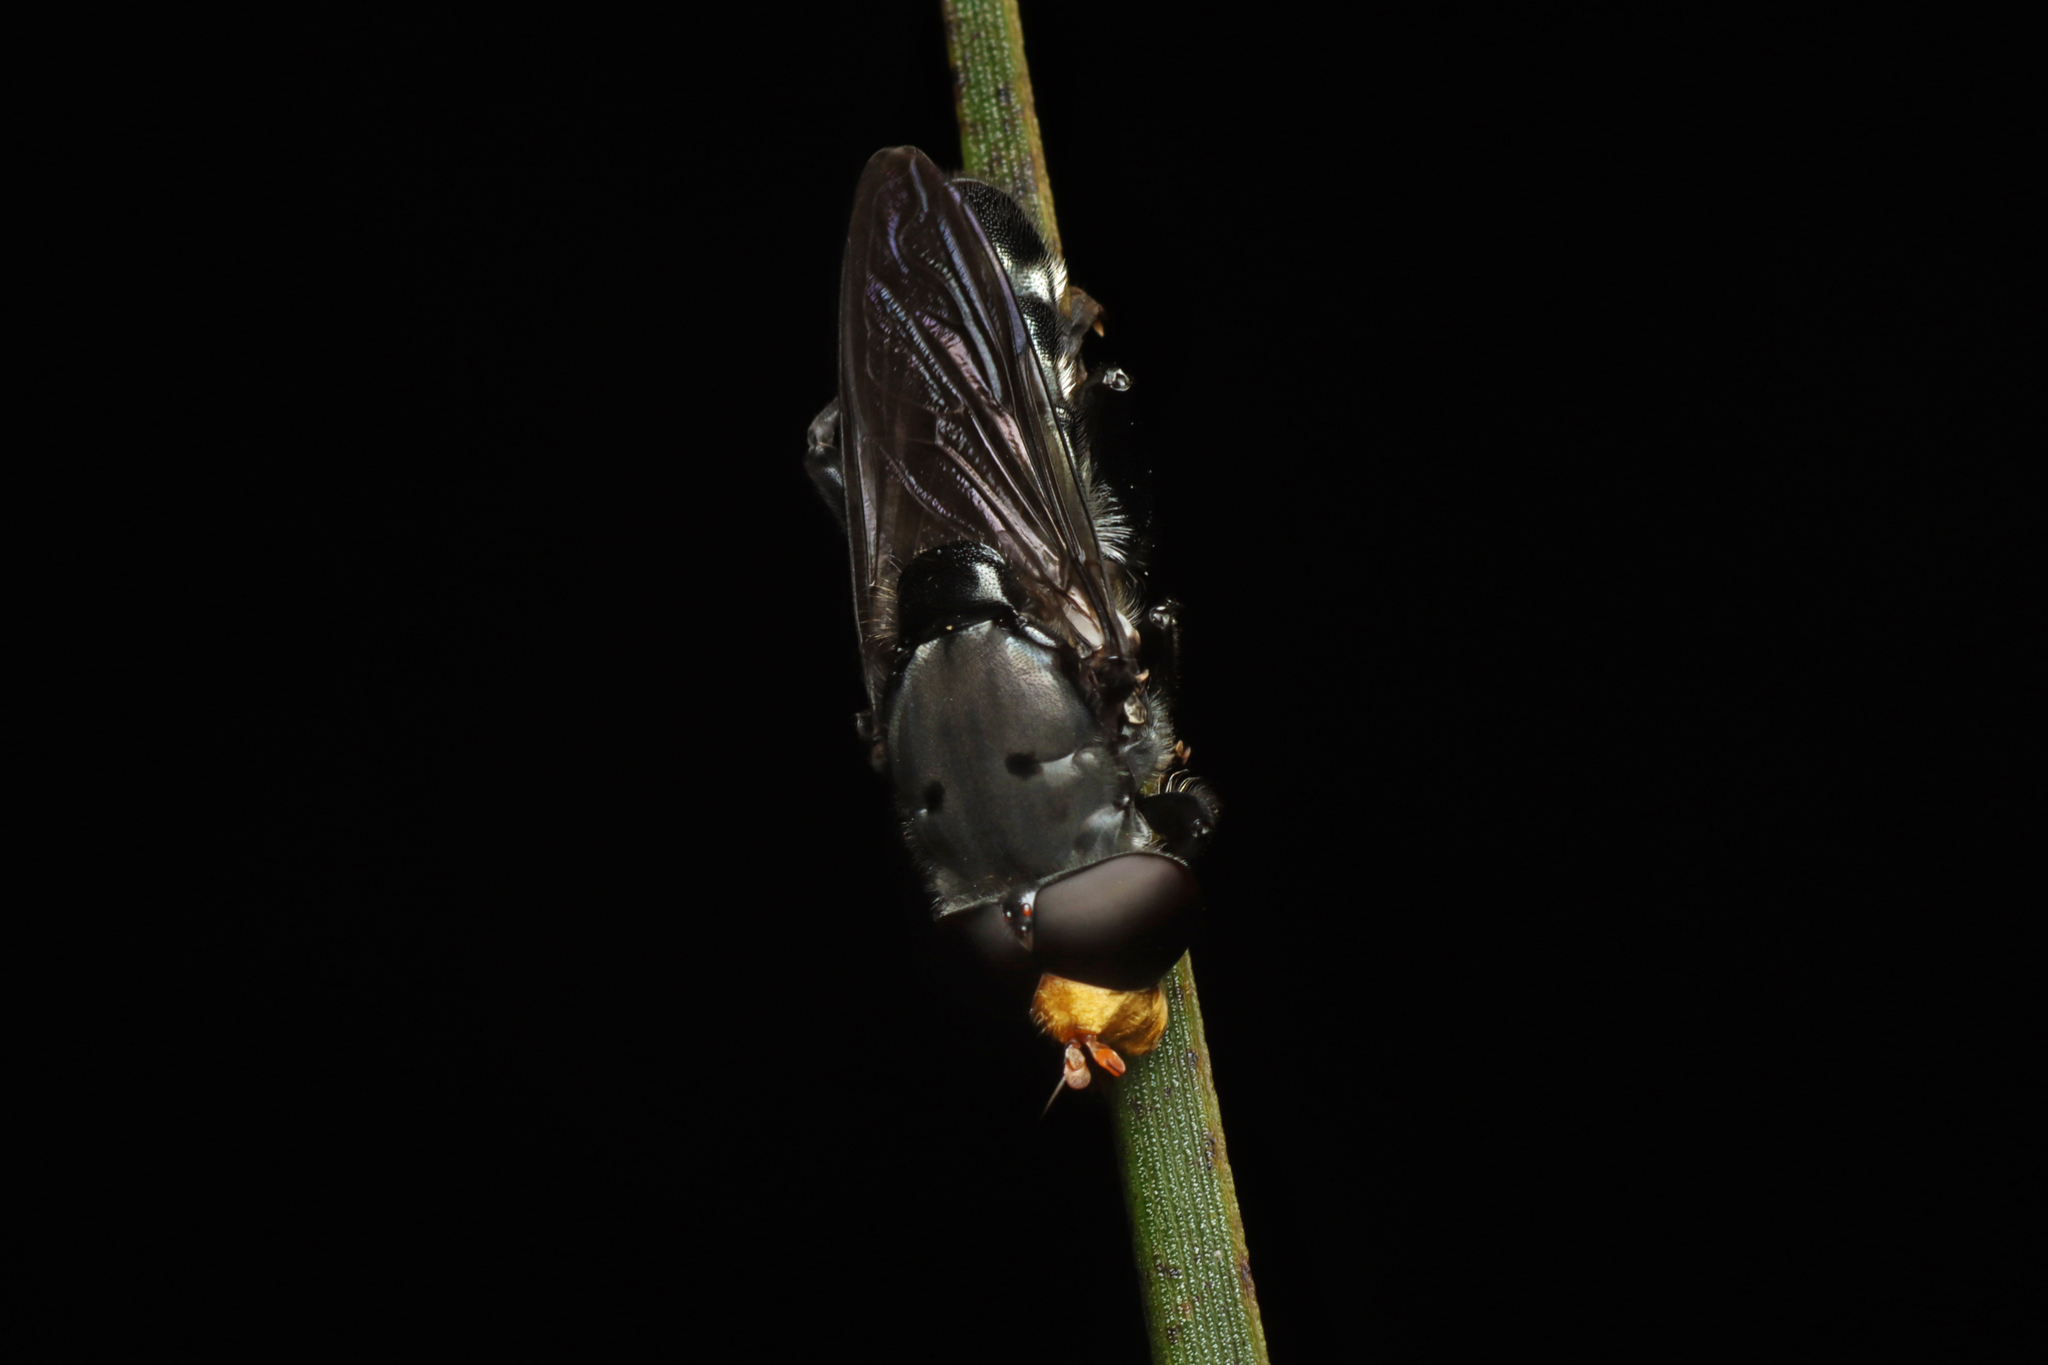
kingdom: Animalia
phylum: Arthropoda
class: Insecta
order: Diptera
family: Syrphidae
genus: Orthoprosopa
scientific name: Orthoprosopa grisea
